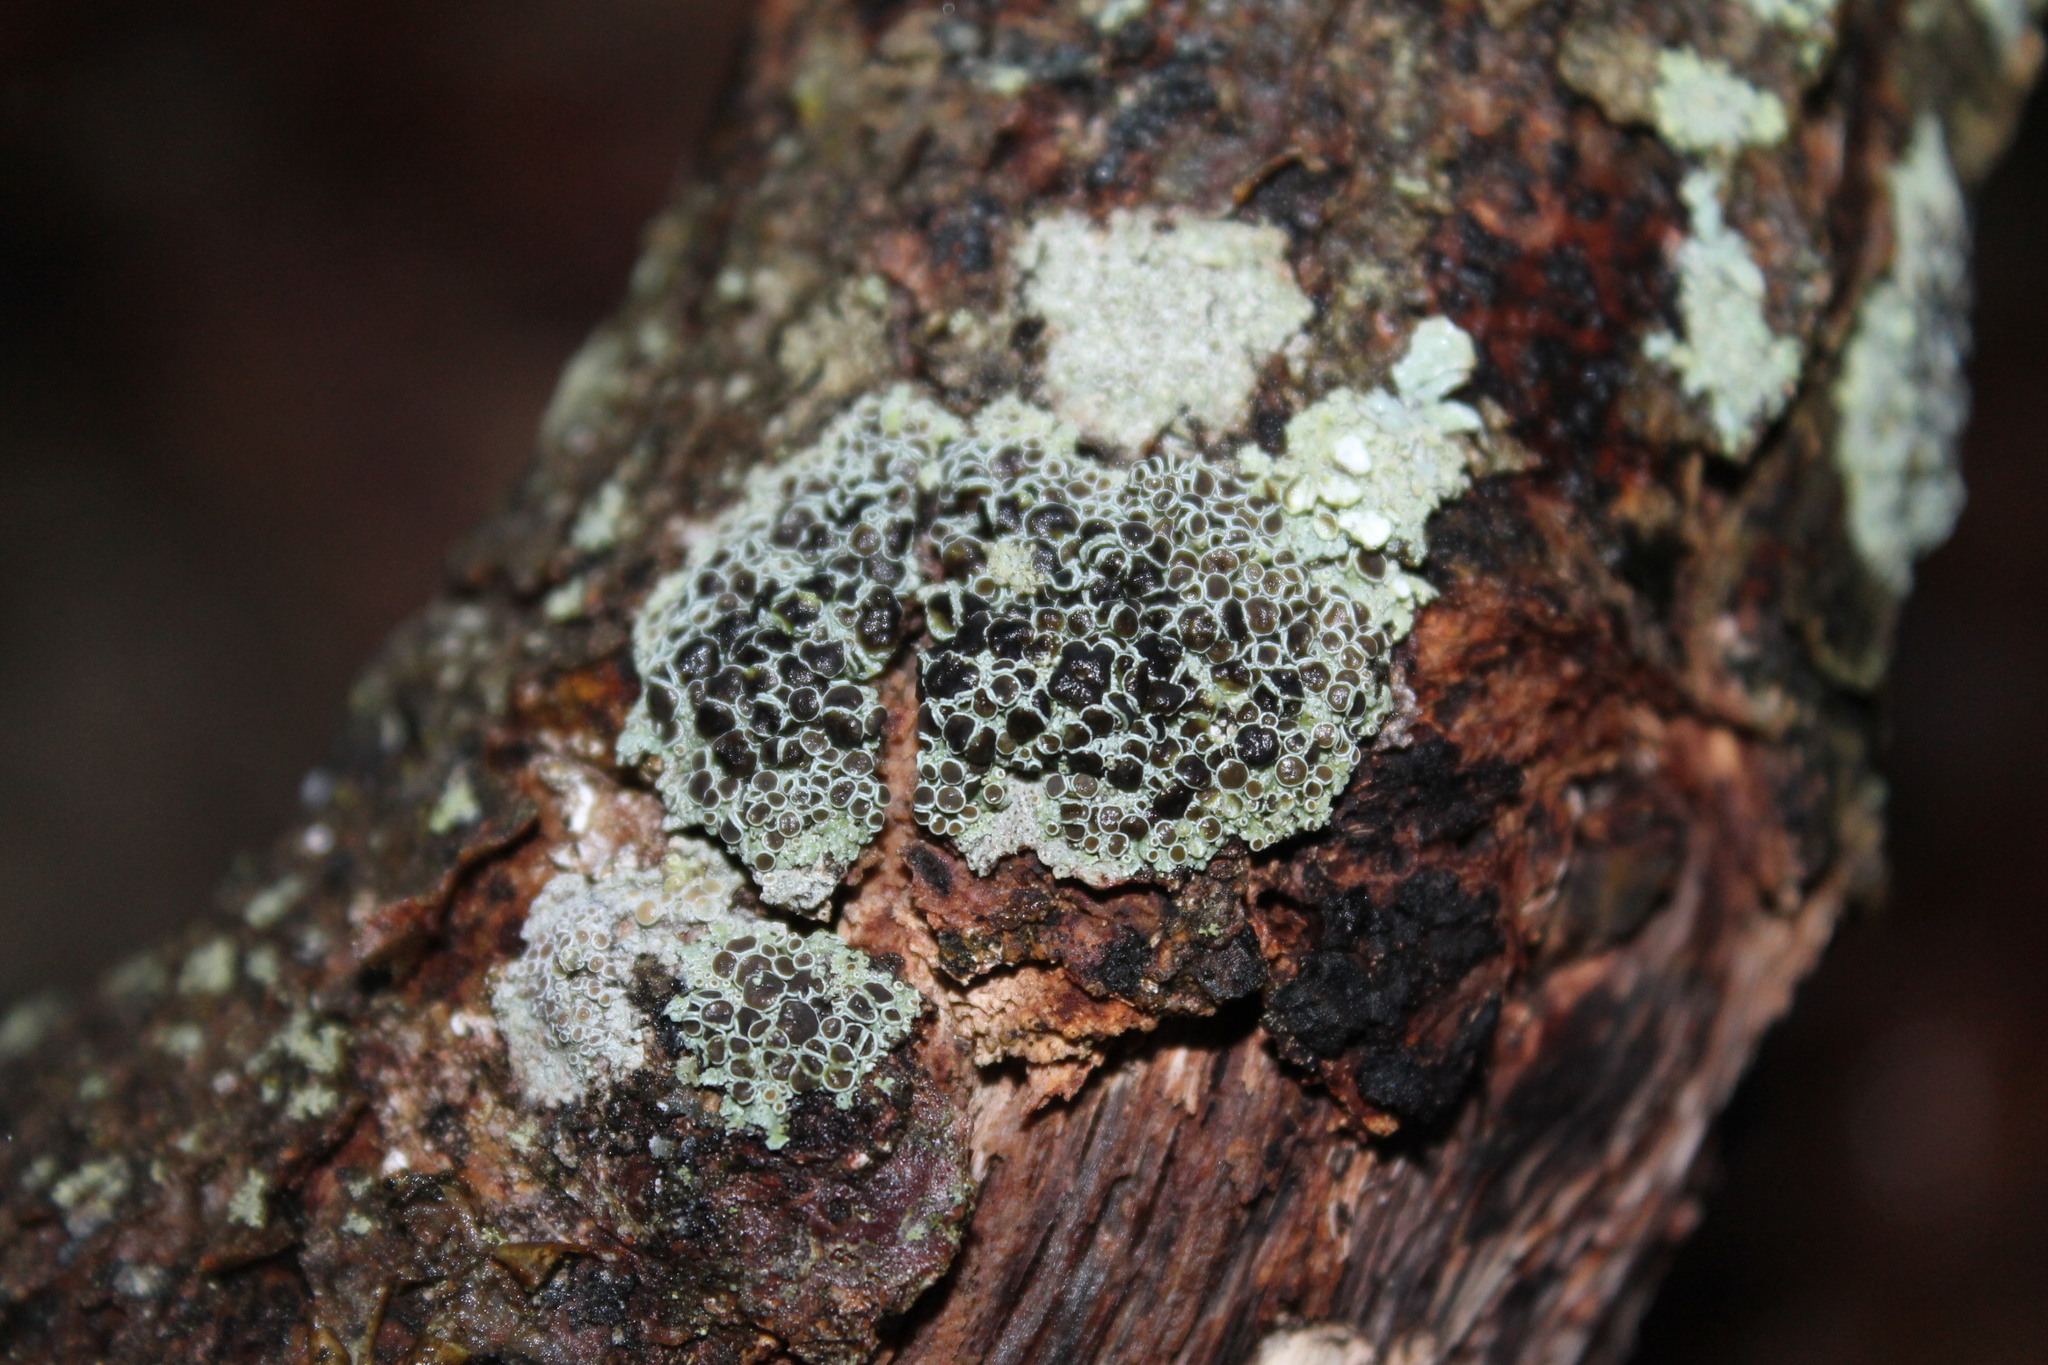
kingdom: Fungi
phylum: Ascomycota
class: Lecanoromycetes
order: Caliciales
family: Physciaceae
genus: Physcia
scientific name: Physcia millegrana
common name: Rosette lichen
